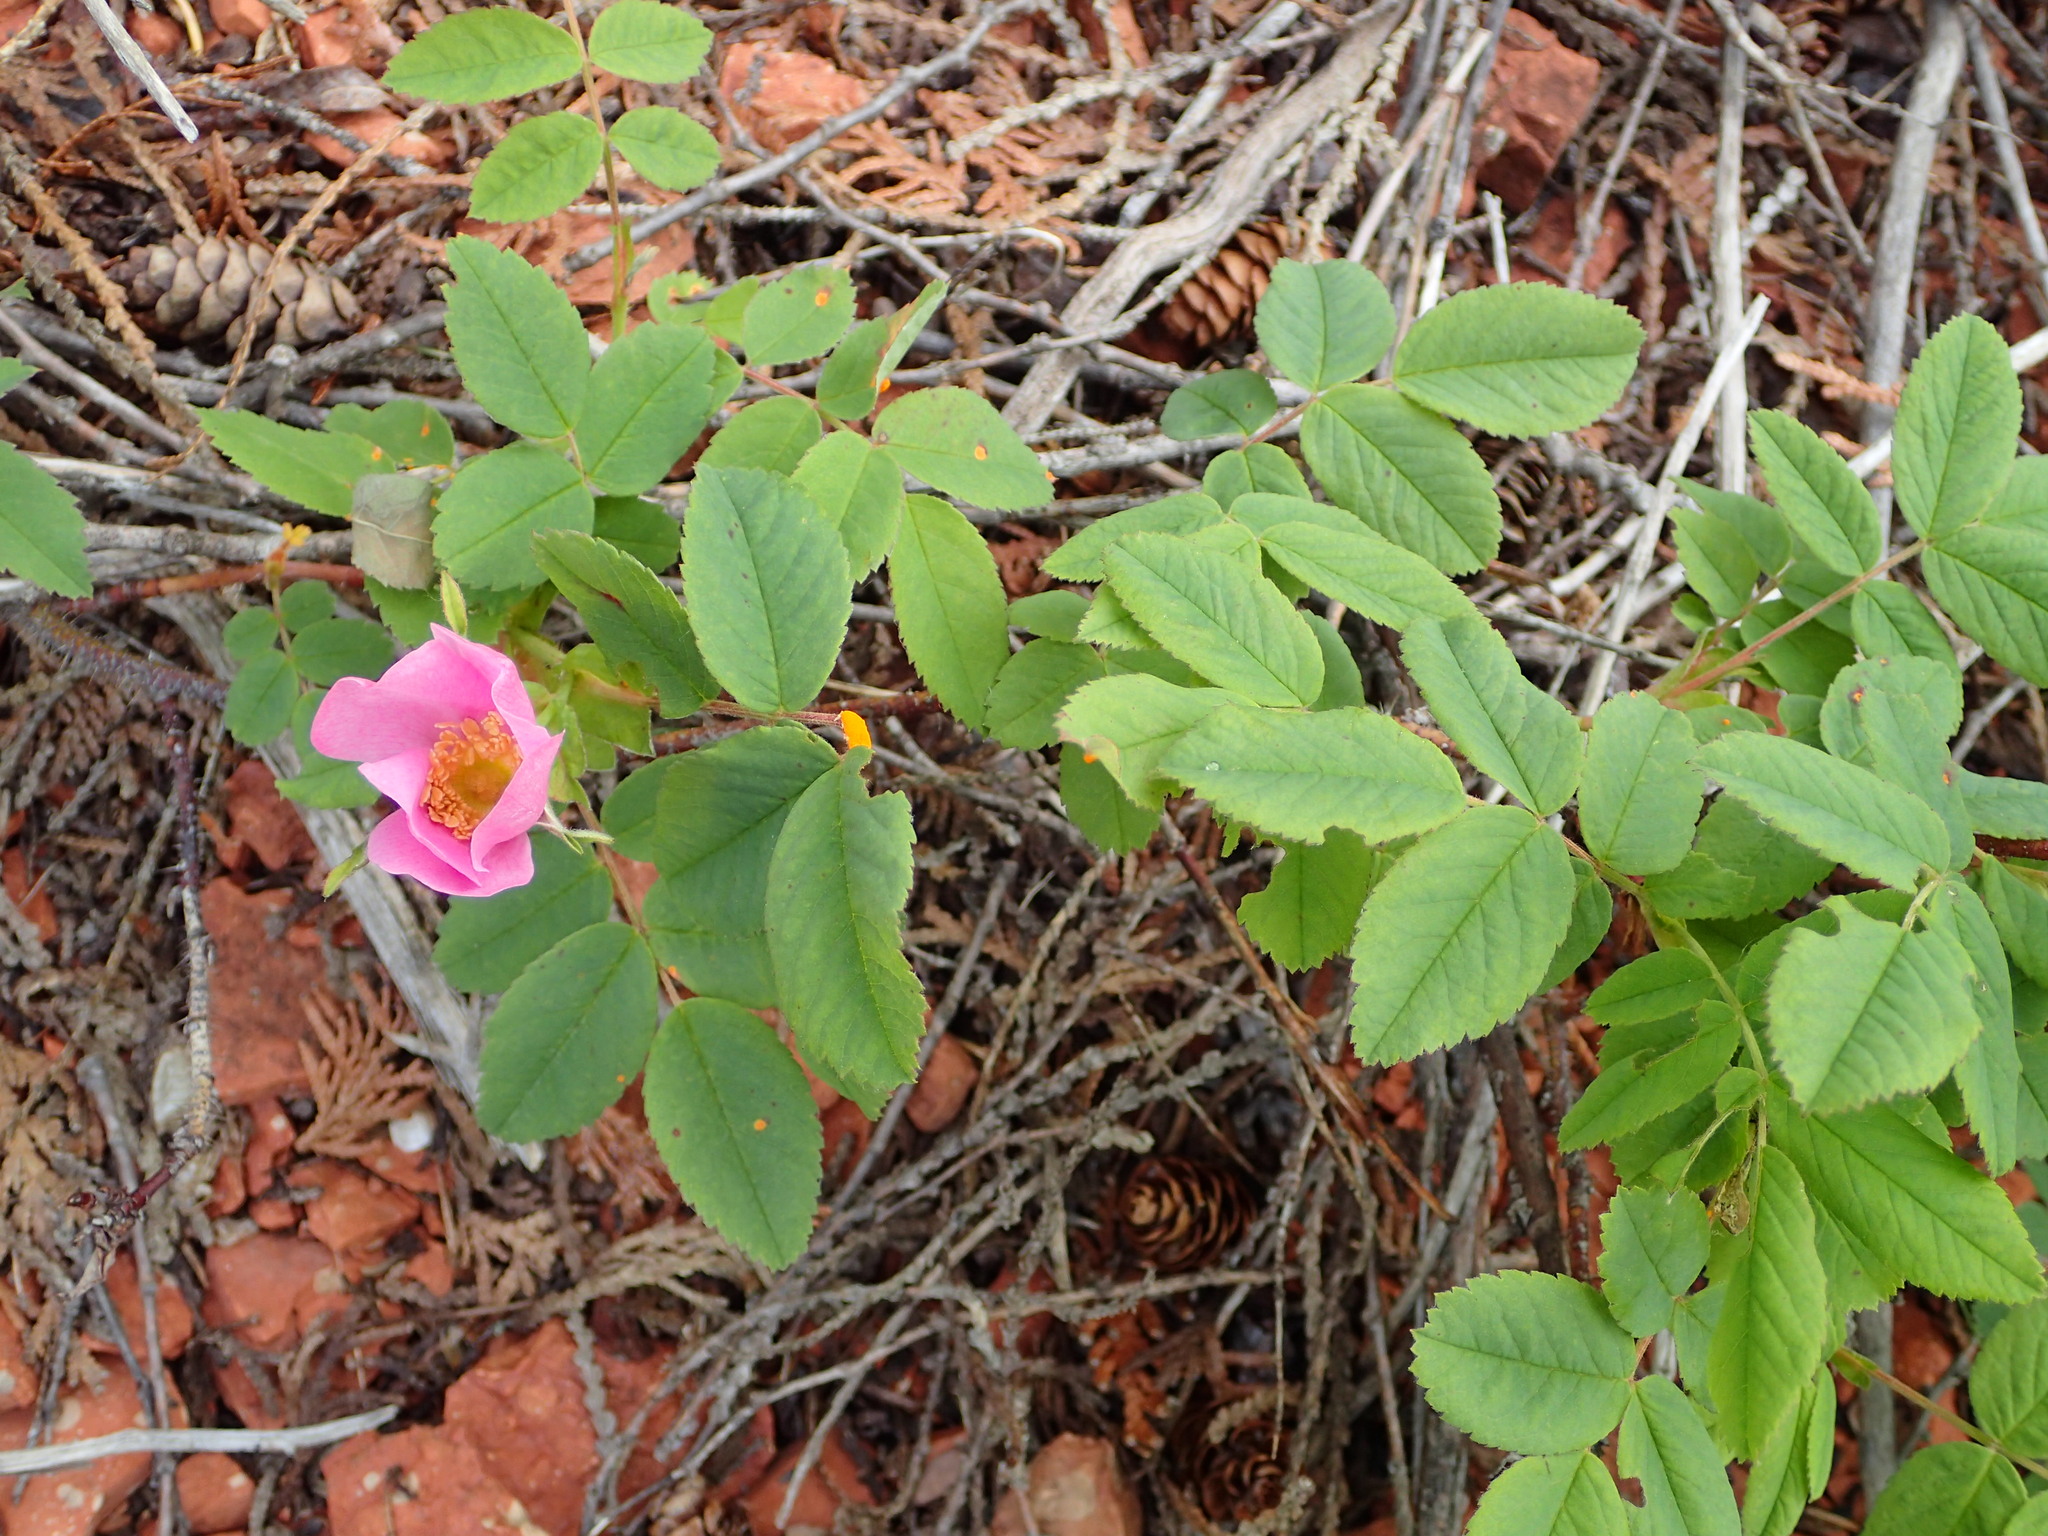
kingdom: Plantae
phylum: Tracheophyta
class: Magnoliopsida
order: Rosales
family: Rosaceae
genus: Rosa
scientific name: Rosa acicularis
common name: Prickly rose
